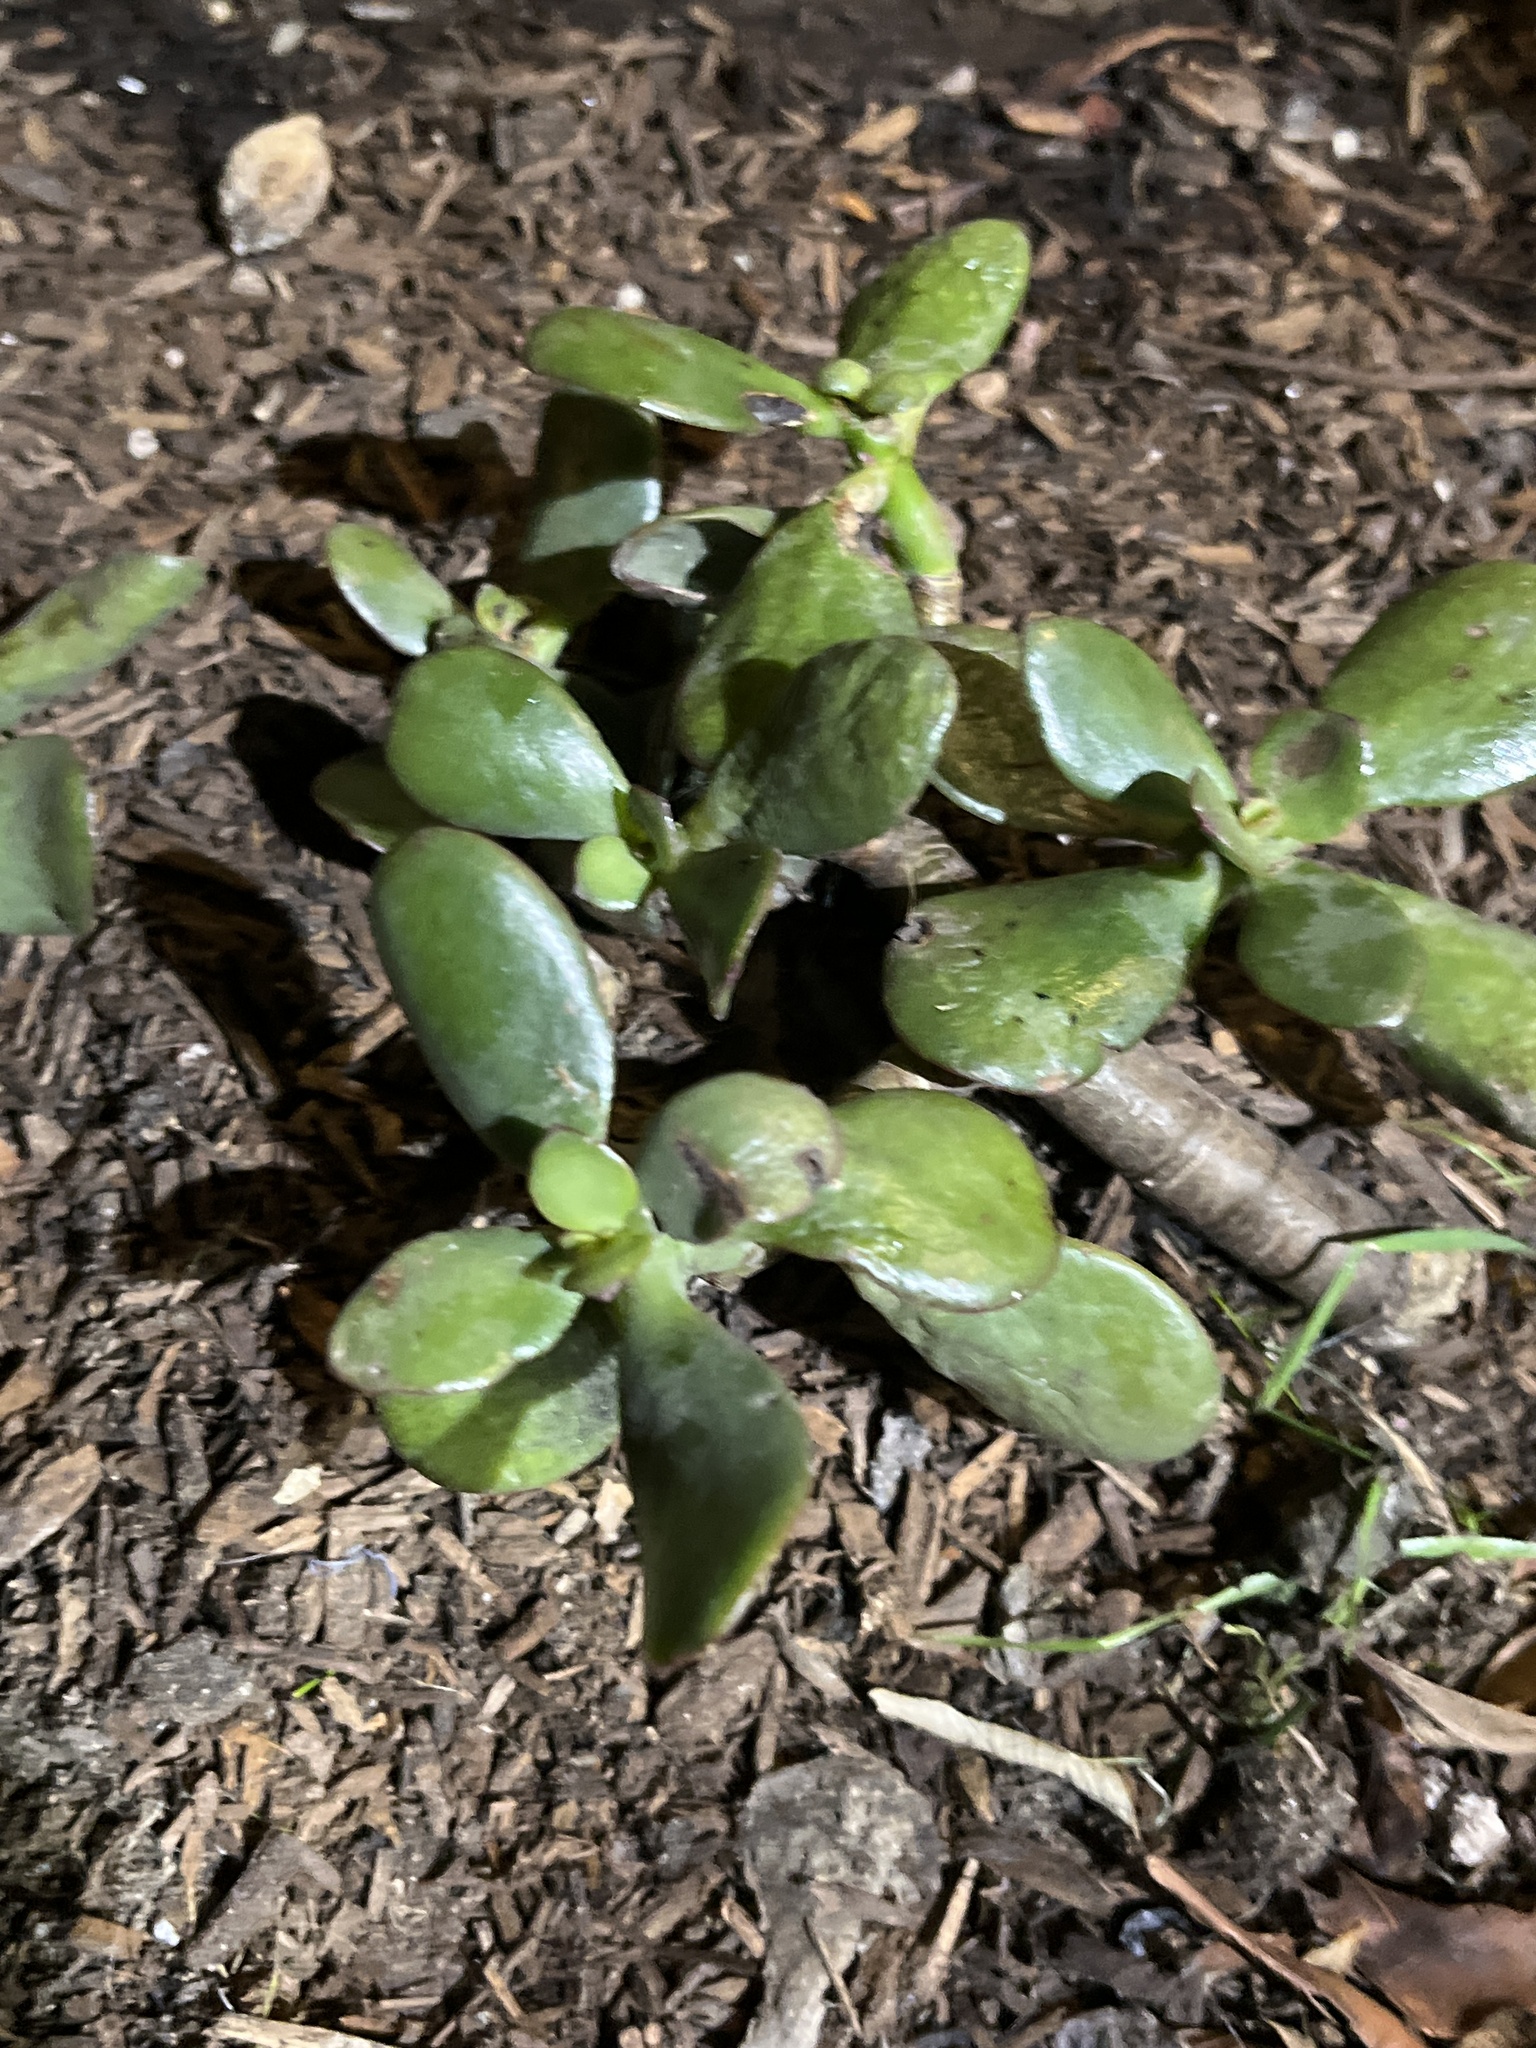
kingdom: Plantae
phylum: Tracheophyta
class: Magnoliopsida
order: Saxifragales
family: Crassulaceae
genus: Crassula
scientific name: Crassula ovata
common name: Jade plant
